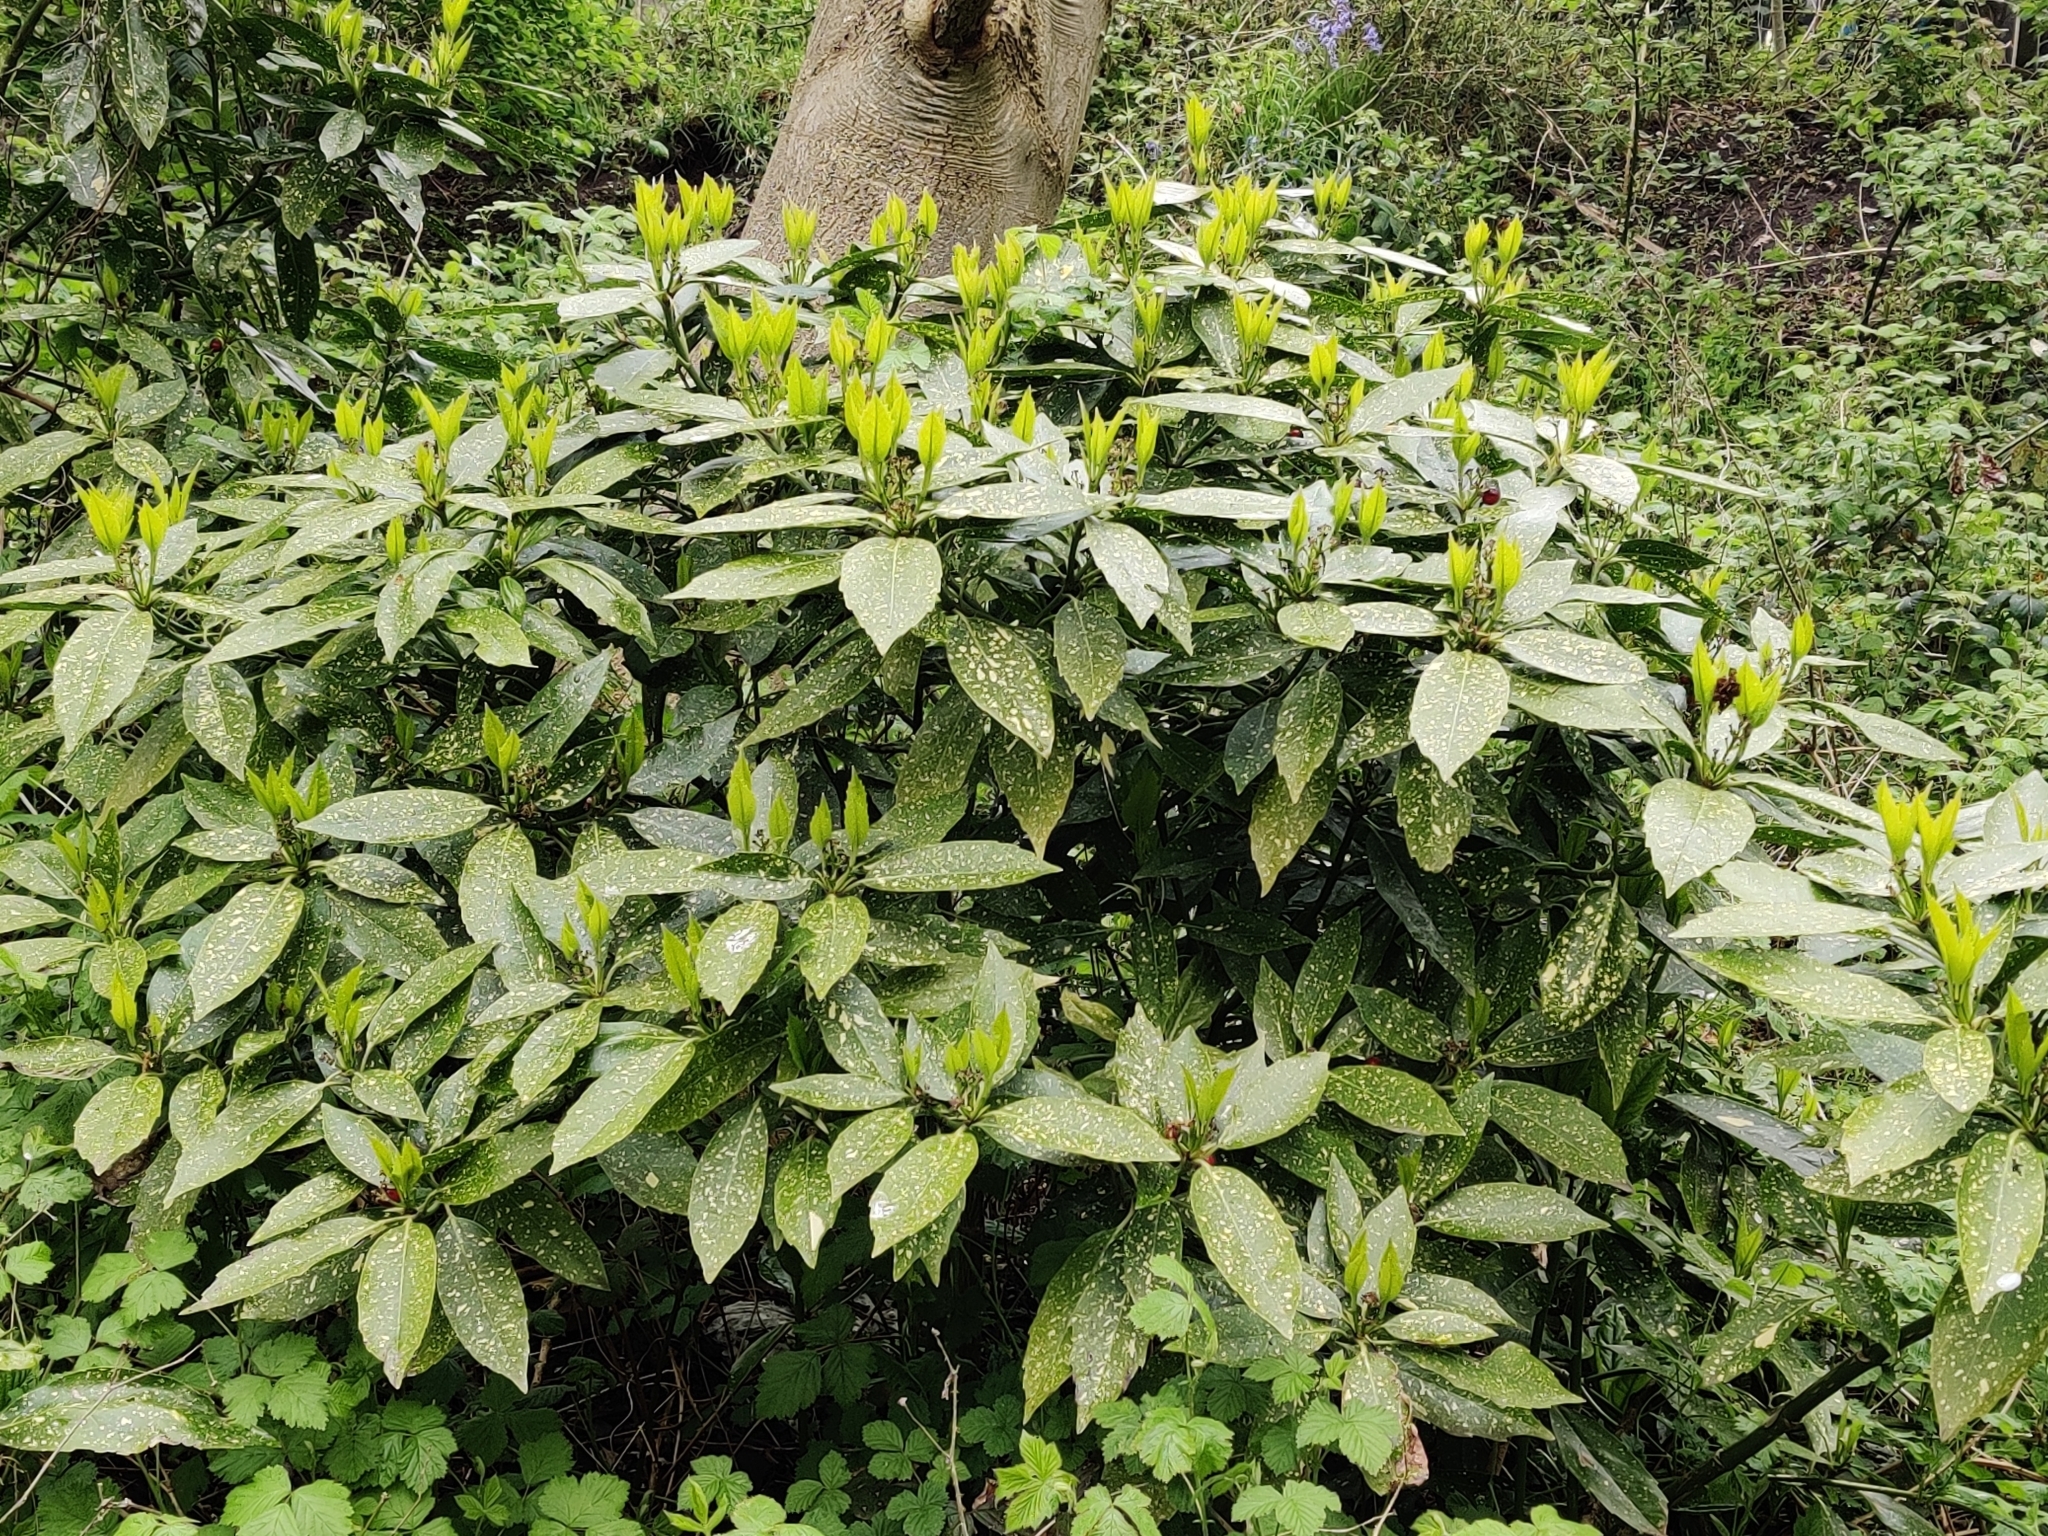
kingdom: Plantae
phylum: Tracheophyta
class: Magnoliopsida
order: Garryales
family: Garryaceae
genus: Aucuba
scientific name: Aucuba japonica
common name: Spotted-laurel
